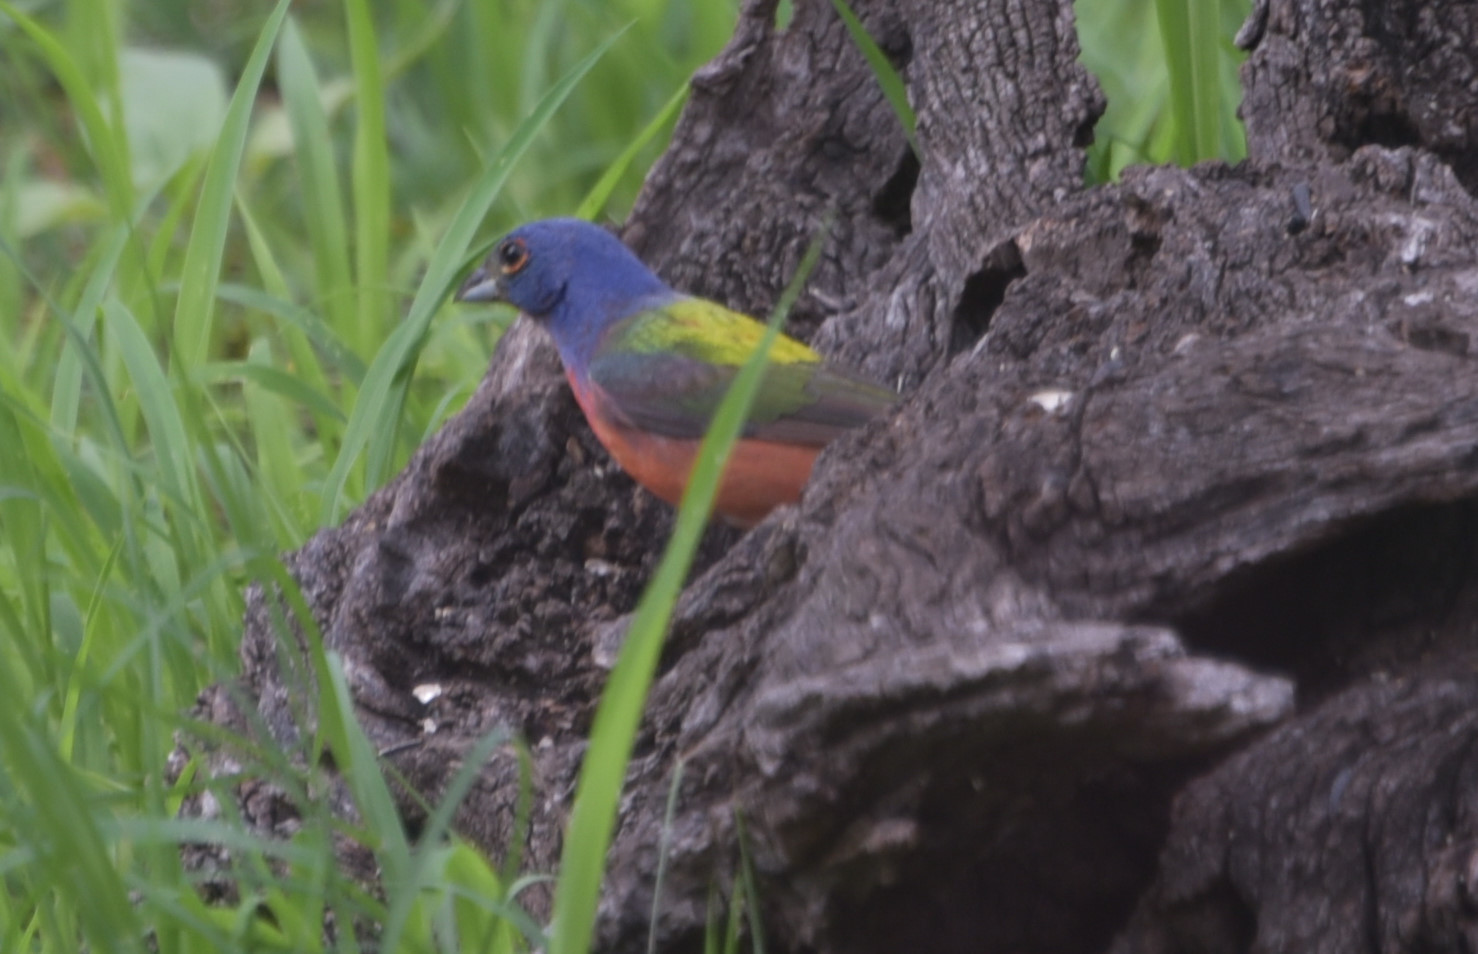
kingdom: Animalia
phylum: Chordata
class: Aves
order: Passeriformes
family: Cardinalidae
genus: Passerina
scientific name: Passerina ciris
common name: Painted bunting
